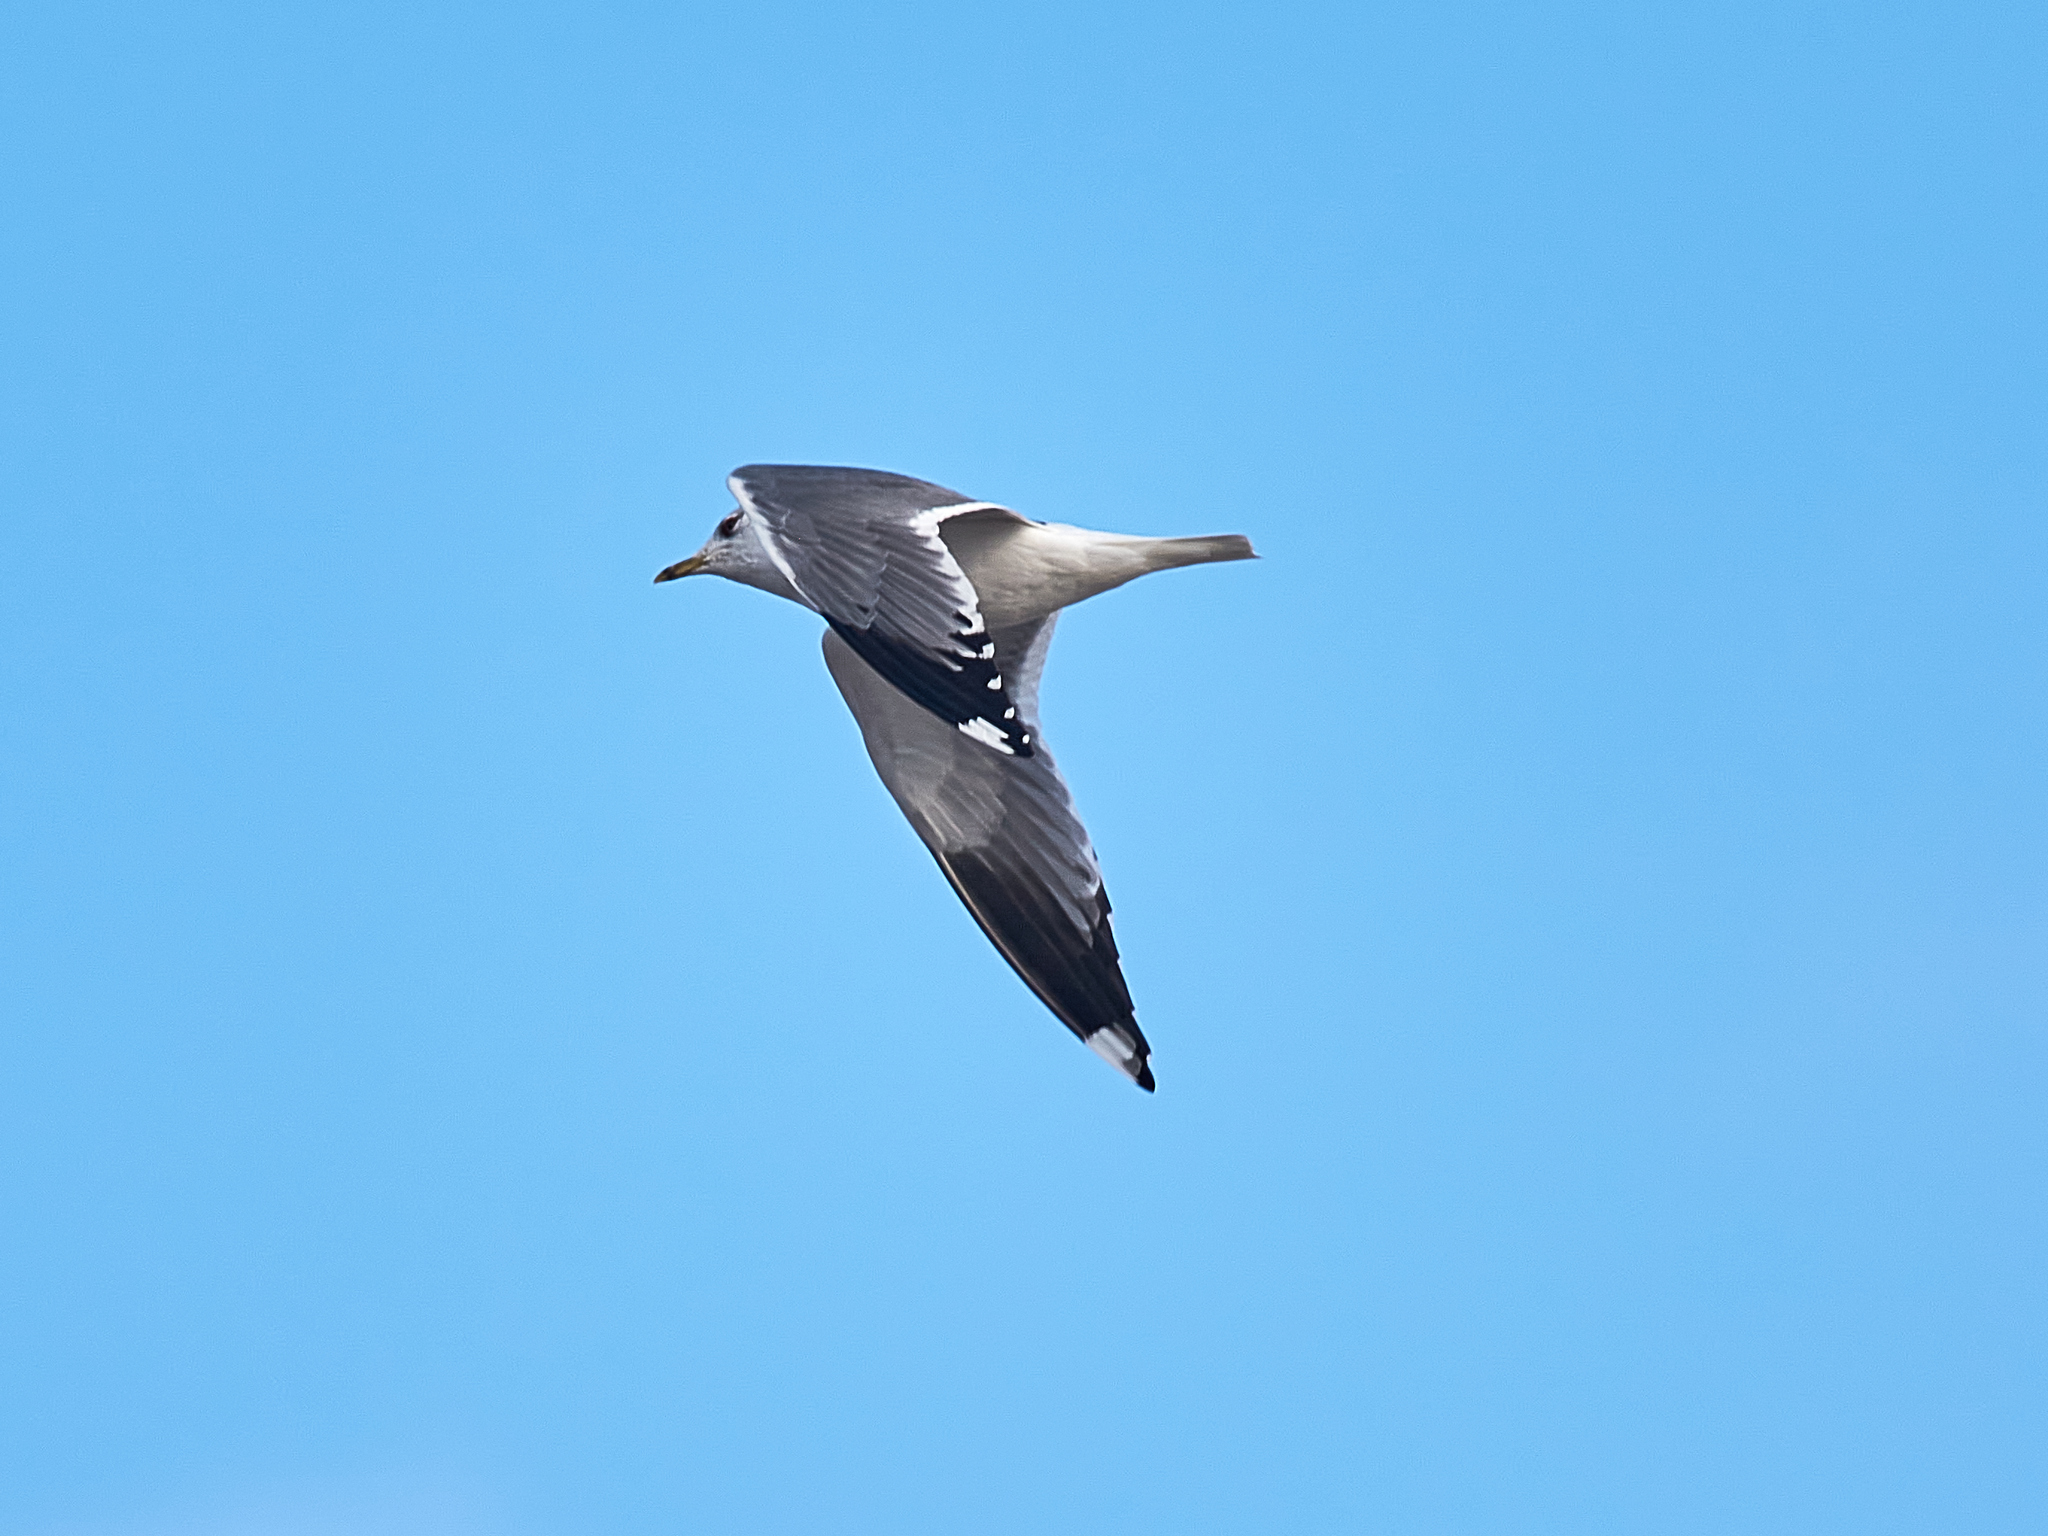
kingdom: Animalia
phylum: Chordata
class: Aves
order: Charadriiformes
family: Laridae
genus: Larus
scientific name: Larus canus
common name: Mew gull
